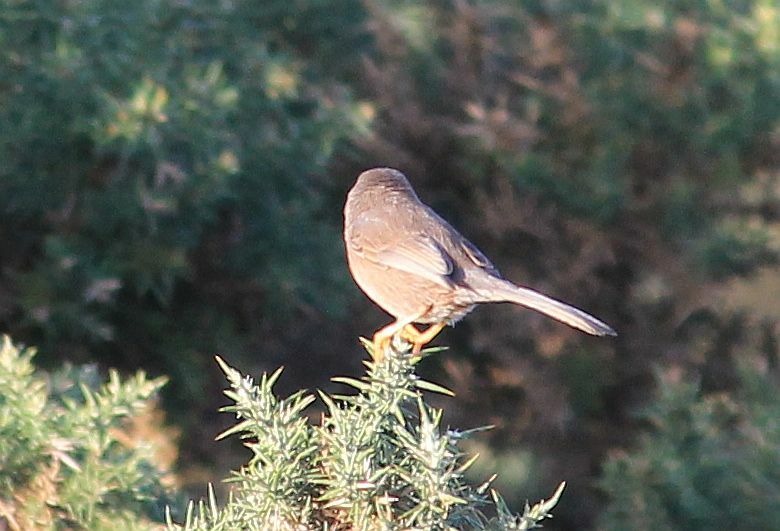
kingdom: Animalia
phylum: Chordata
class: Aves
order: Passeriformes
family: Sylviidae
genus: Sylvia
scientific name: Sylvia undata
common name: Dartford warbler
